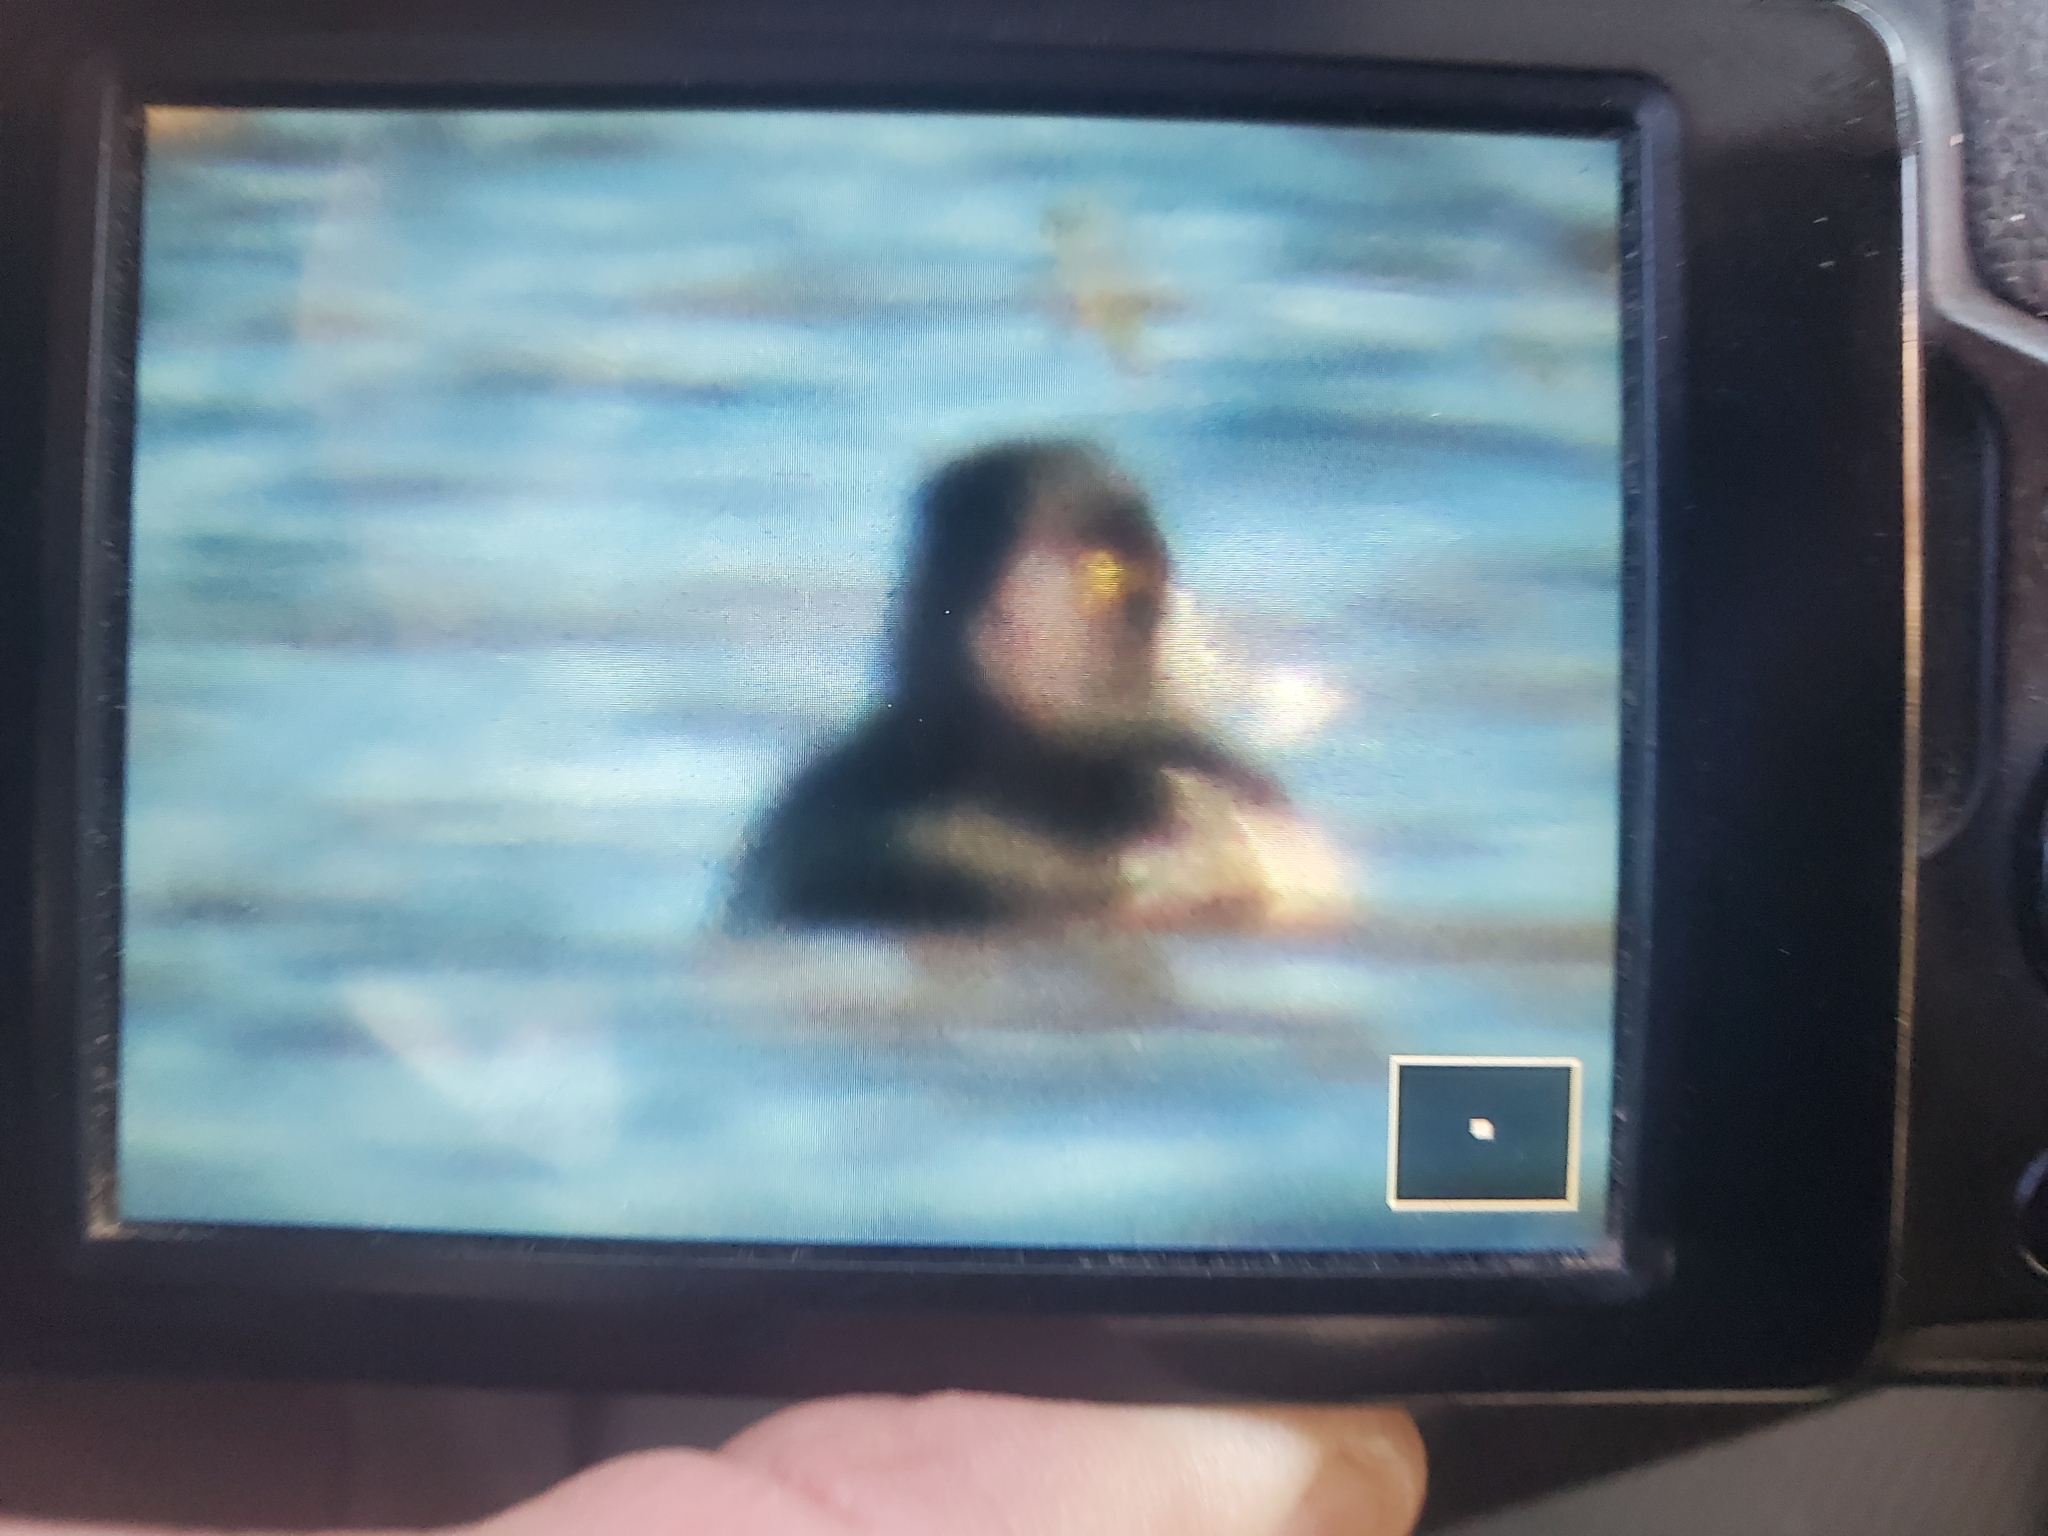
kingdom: Animalia
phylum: Chordata
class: Aves
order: Anseriformes
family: Anatidae
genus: Aythya
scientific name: Aythya collaris
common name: Ring-necked duck
